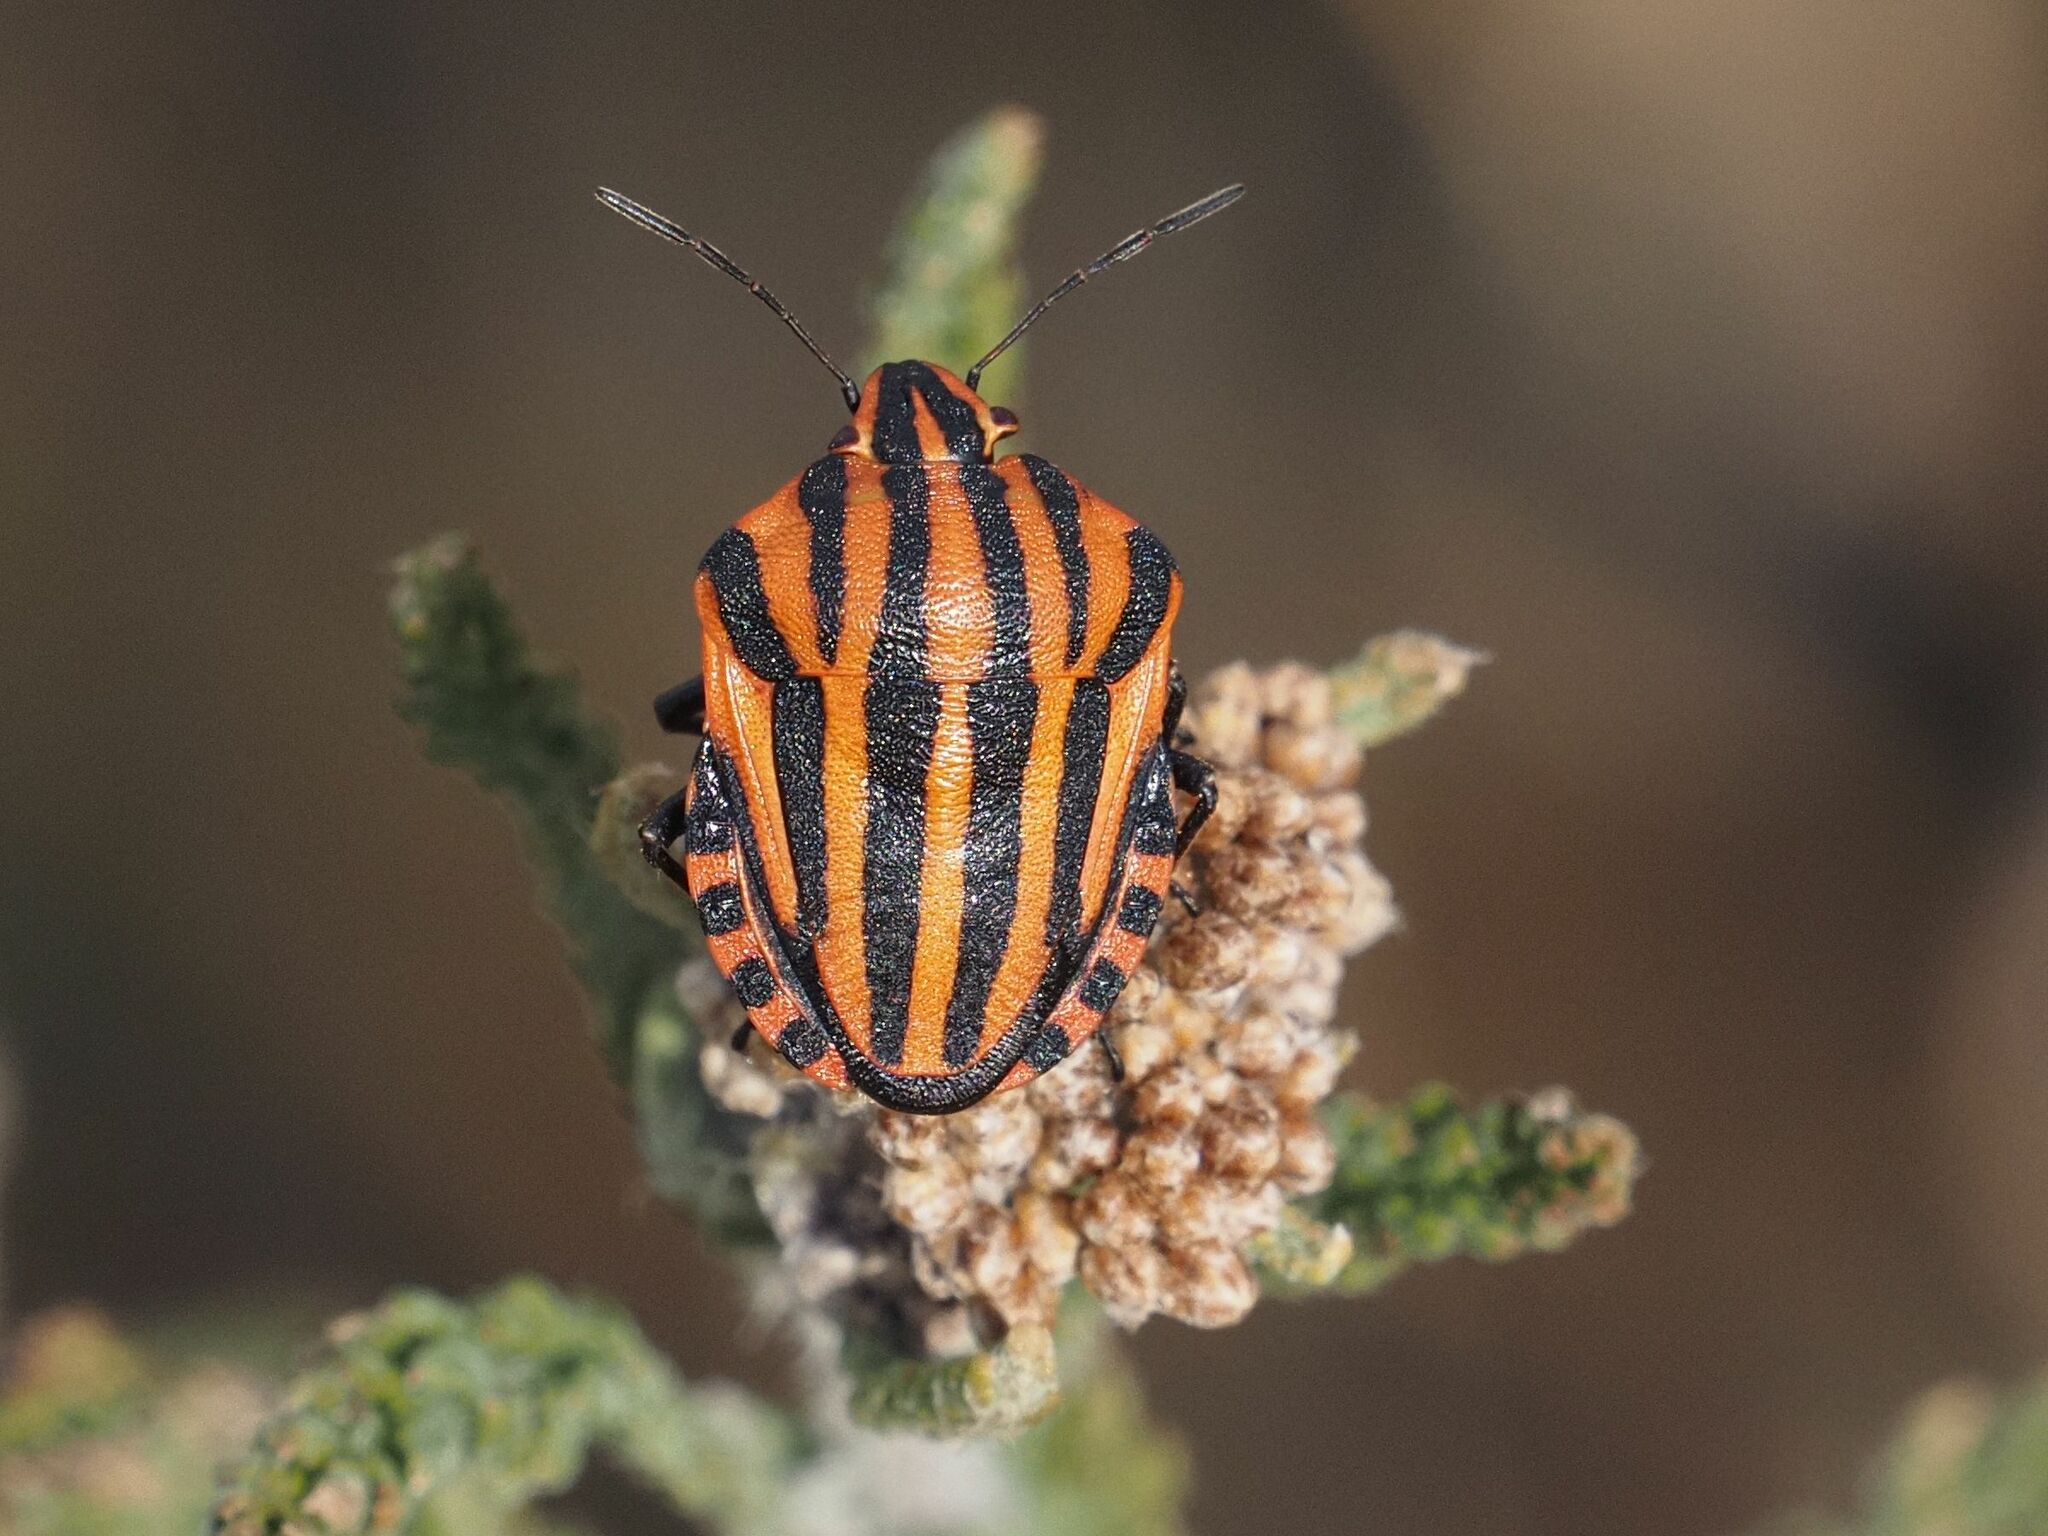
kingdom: Animalia
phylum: Arthropoda
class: Insecta
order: Hemiptera
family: Pentatomidae
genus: Graphosoma
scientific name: Graphosoma italicum
